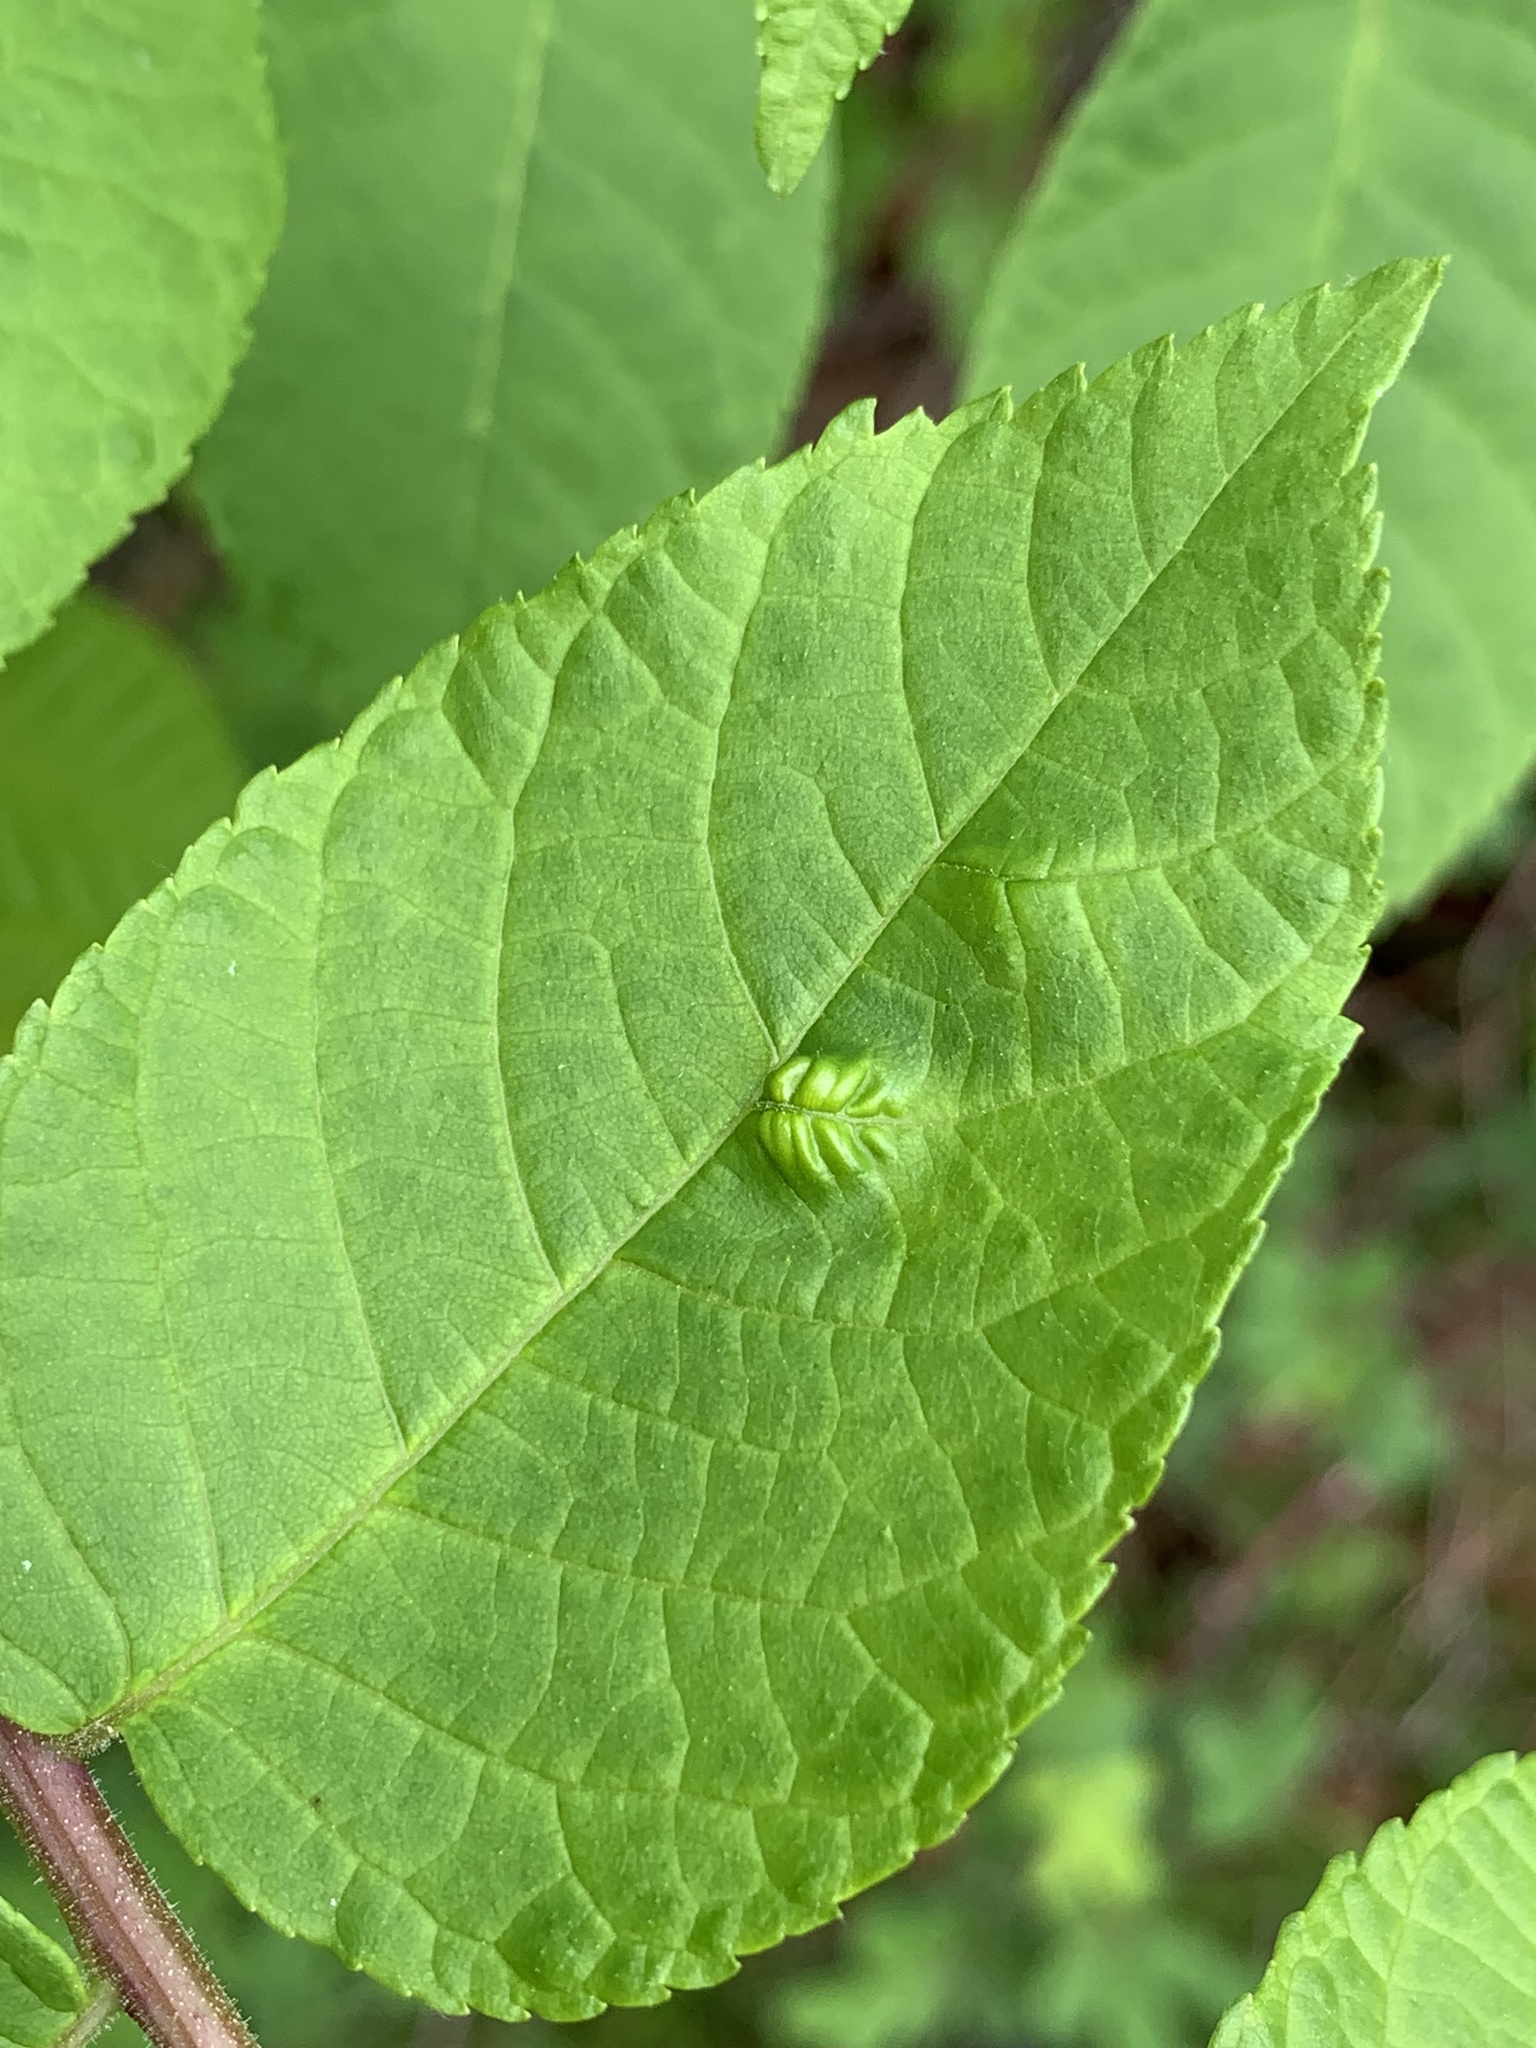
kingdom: Plantae
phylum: Tracheophyta
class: Magnoliopsida
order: Fagales
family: Juglandaceae
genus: Juglans
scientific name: Juglans nigra
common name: Black walnut
